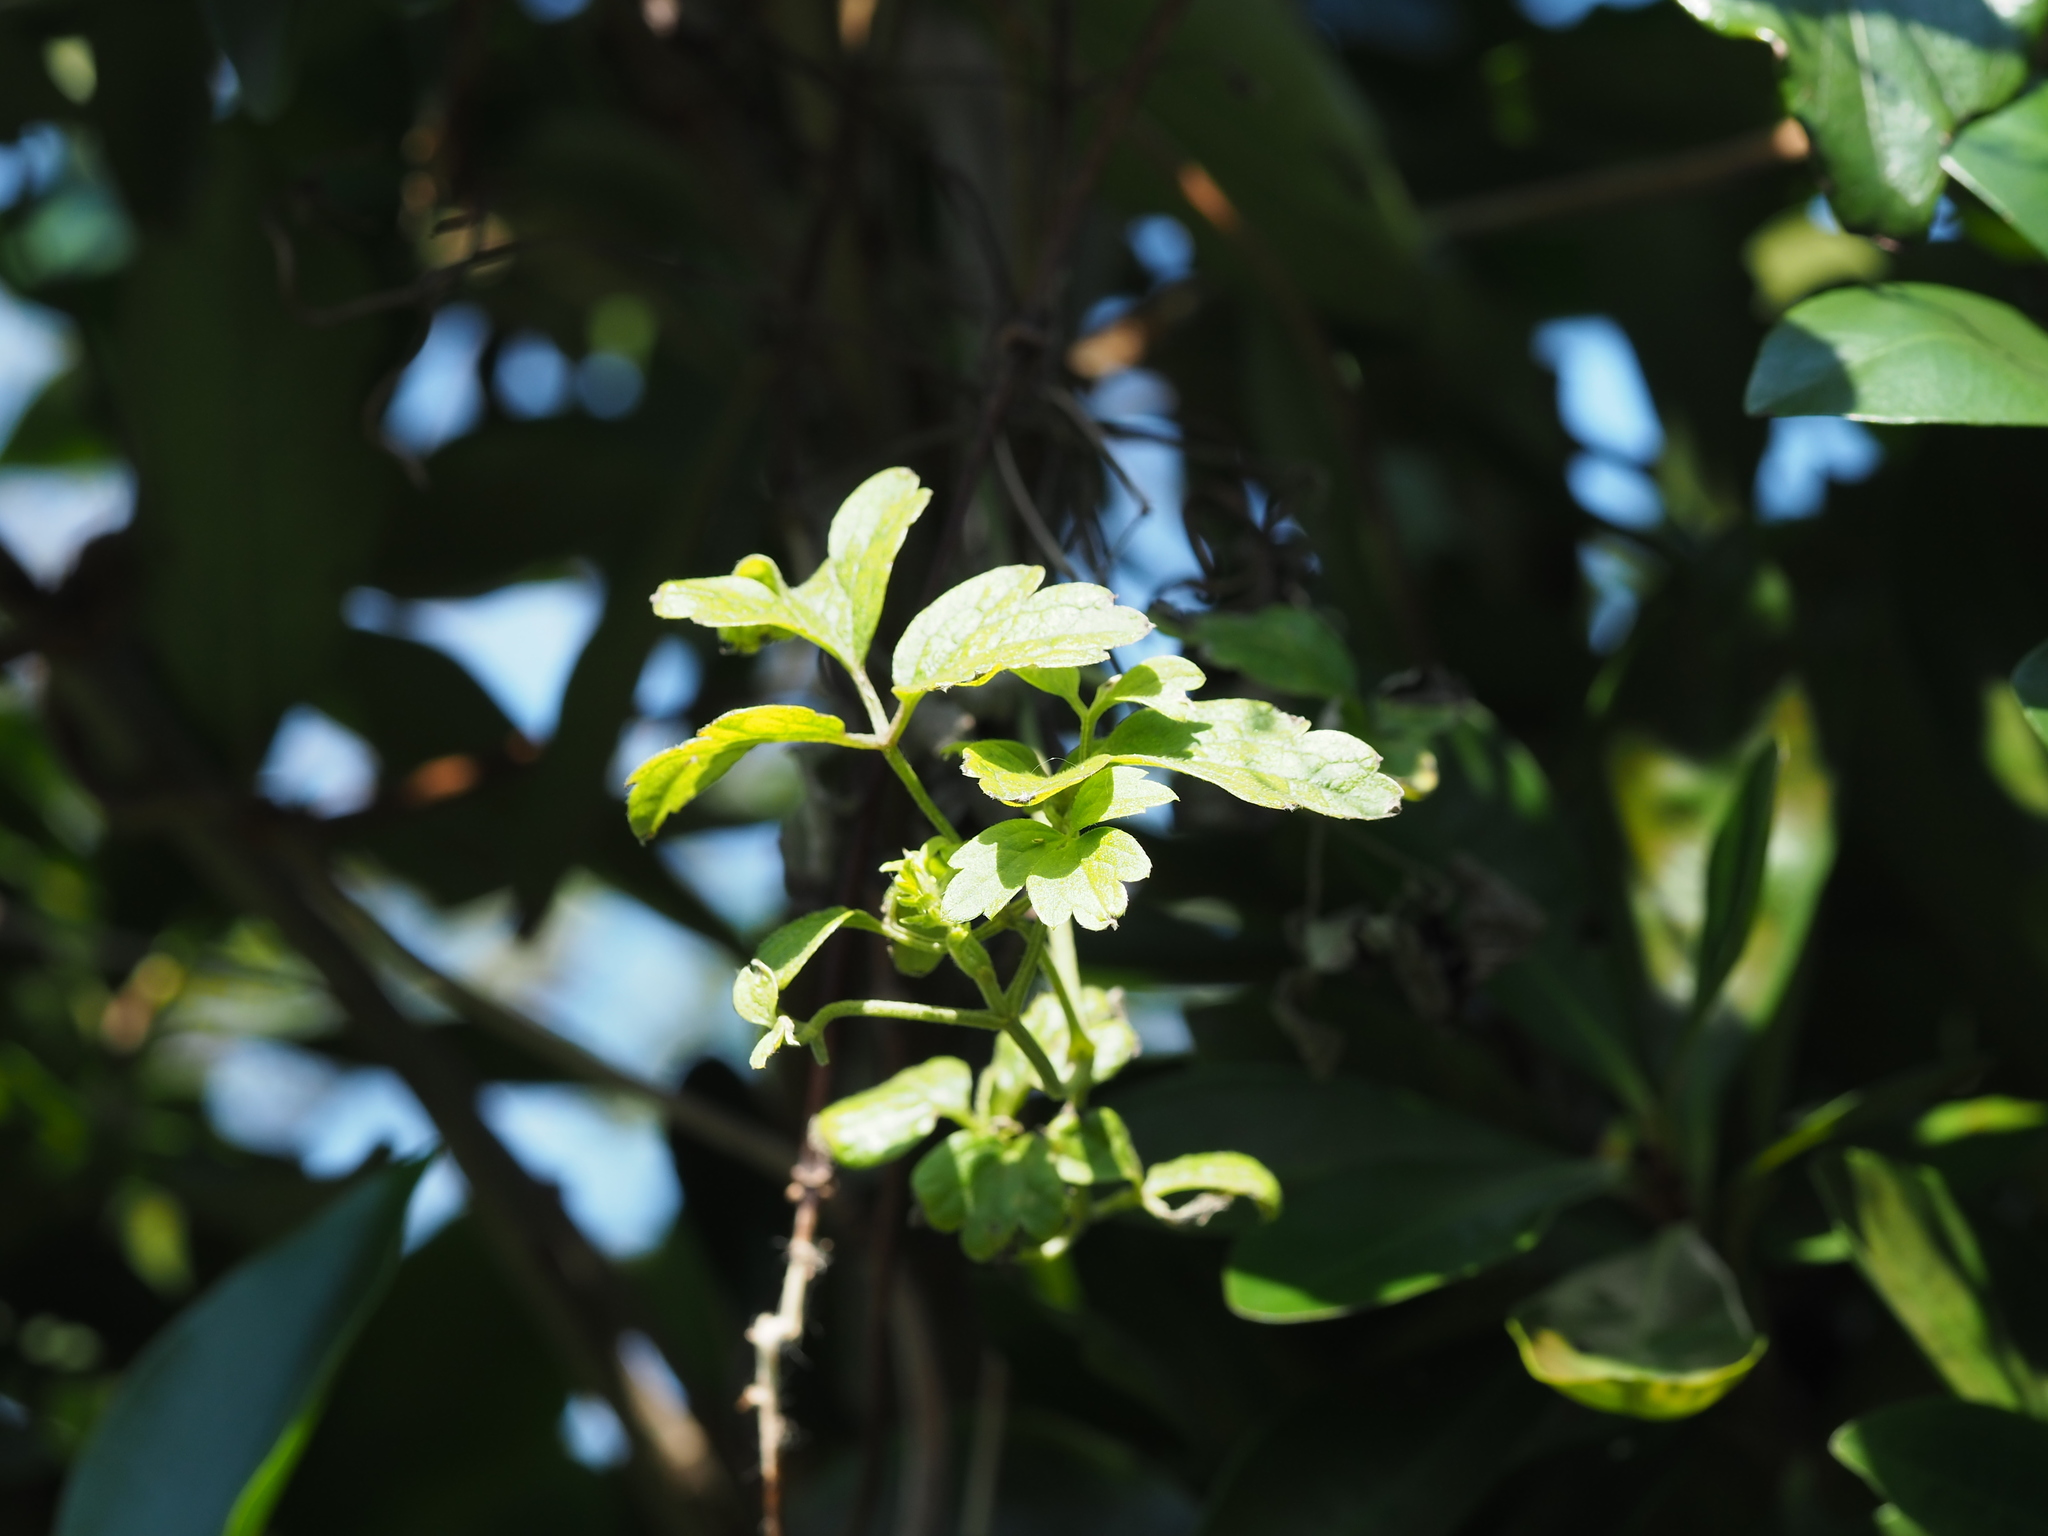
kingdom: Plantae
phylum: Tracheophyta
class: Magnoliopsida
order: Ranunculales
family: Ranunculaceae
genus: Clematis
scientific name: Clematis grata
